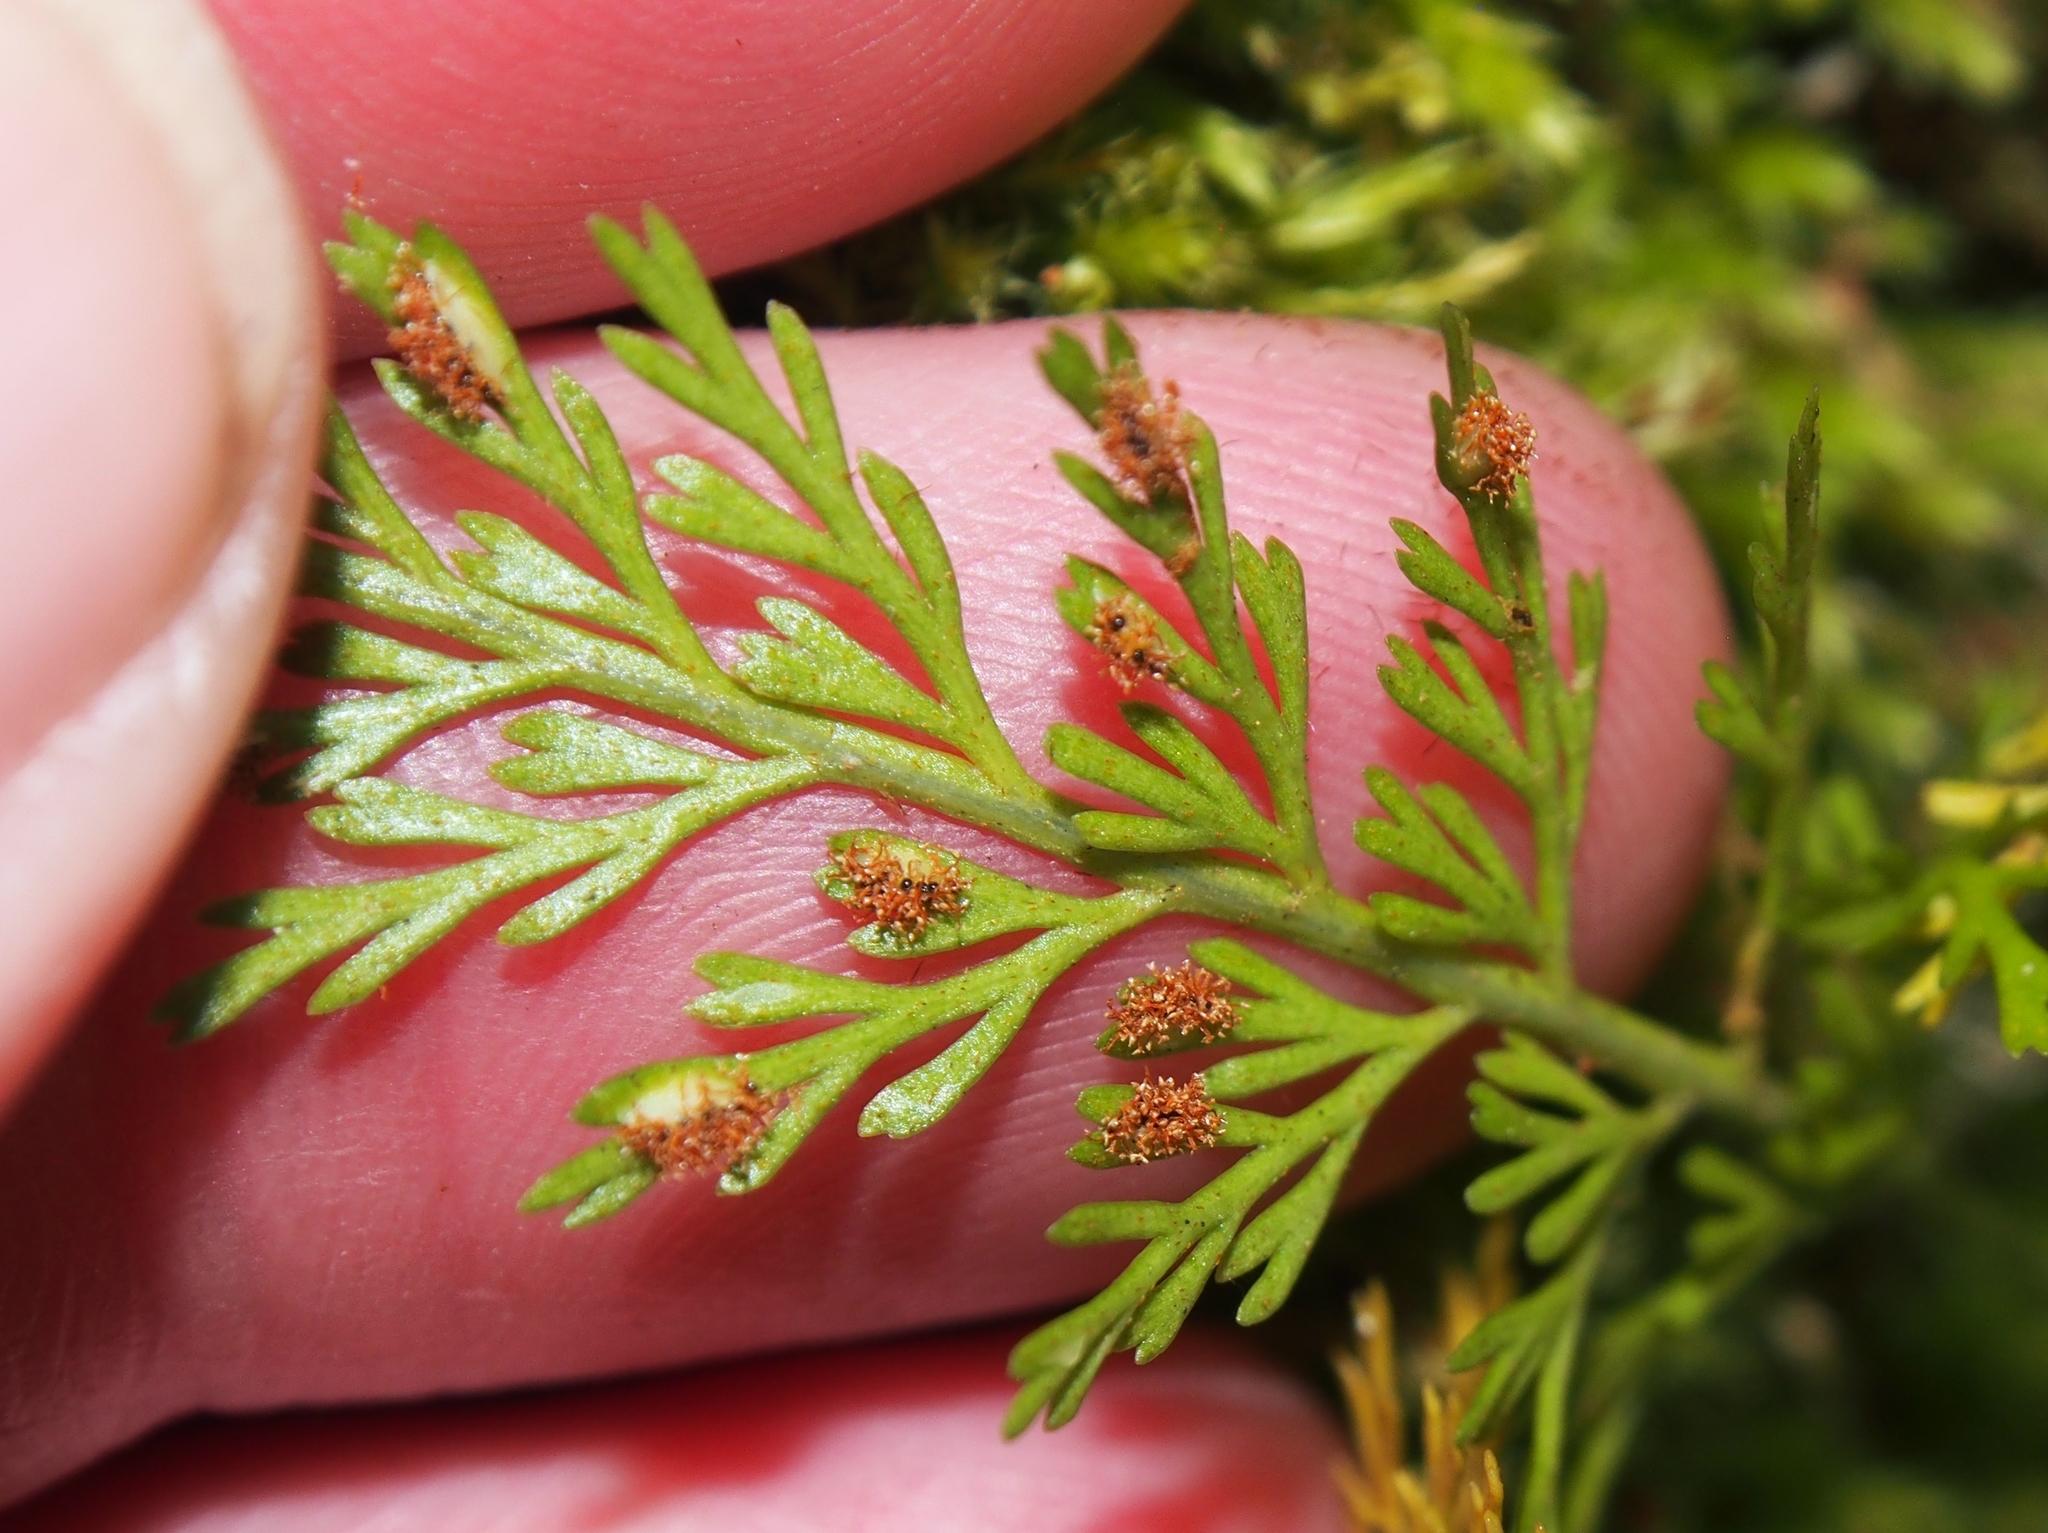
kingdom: Plantae
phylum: Tracheophyta
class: Polypodiopsida
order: Polypodiales
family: Aspleniaceae
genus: Asplenium
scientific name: Asplenium fragrans
